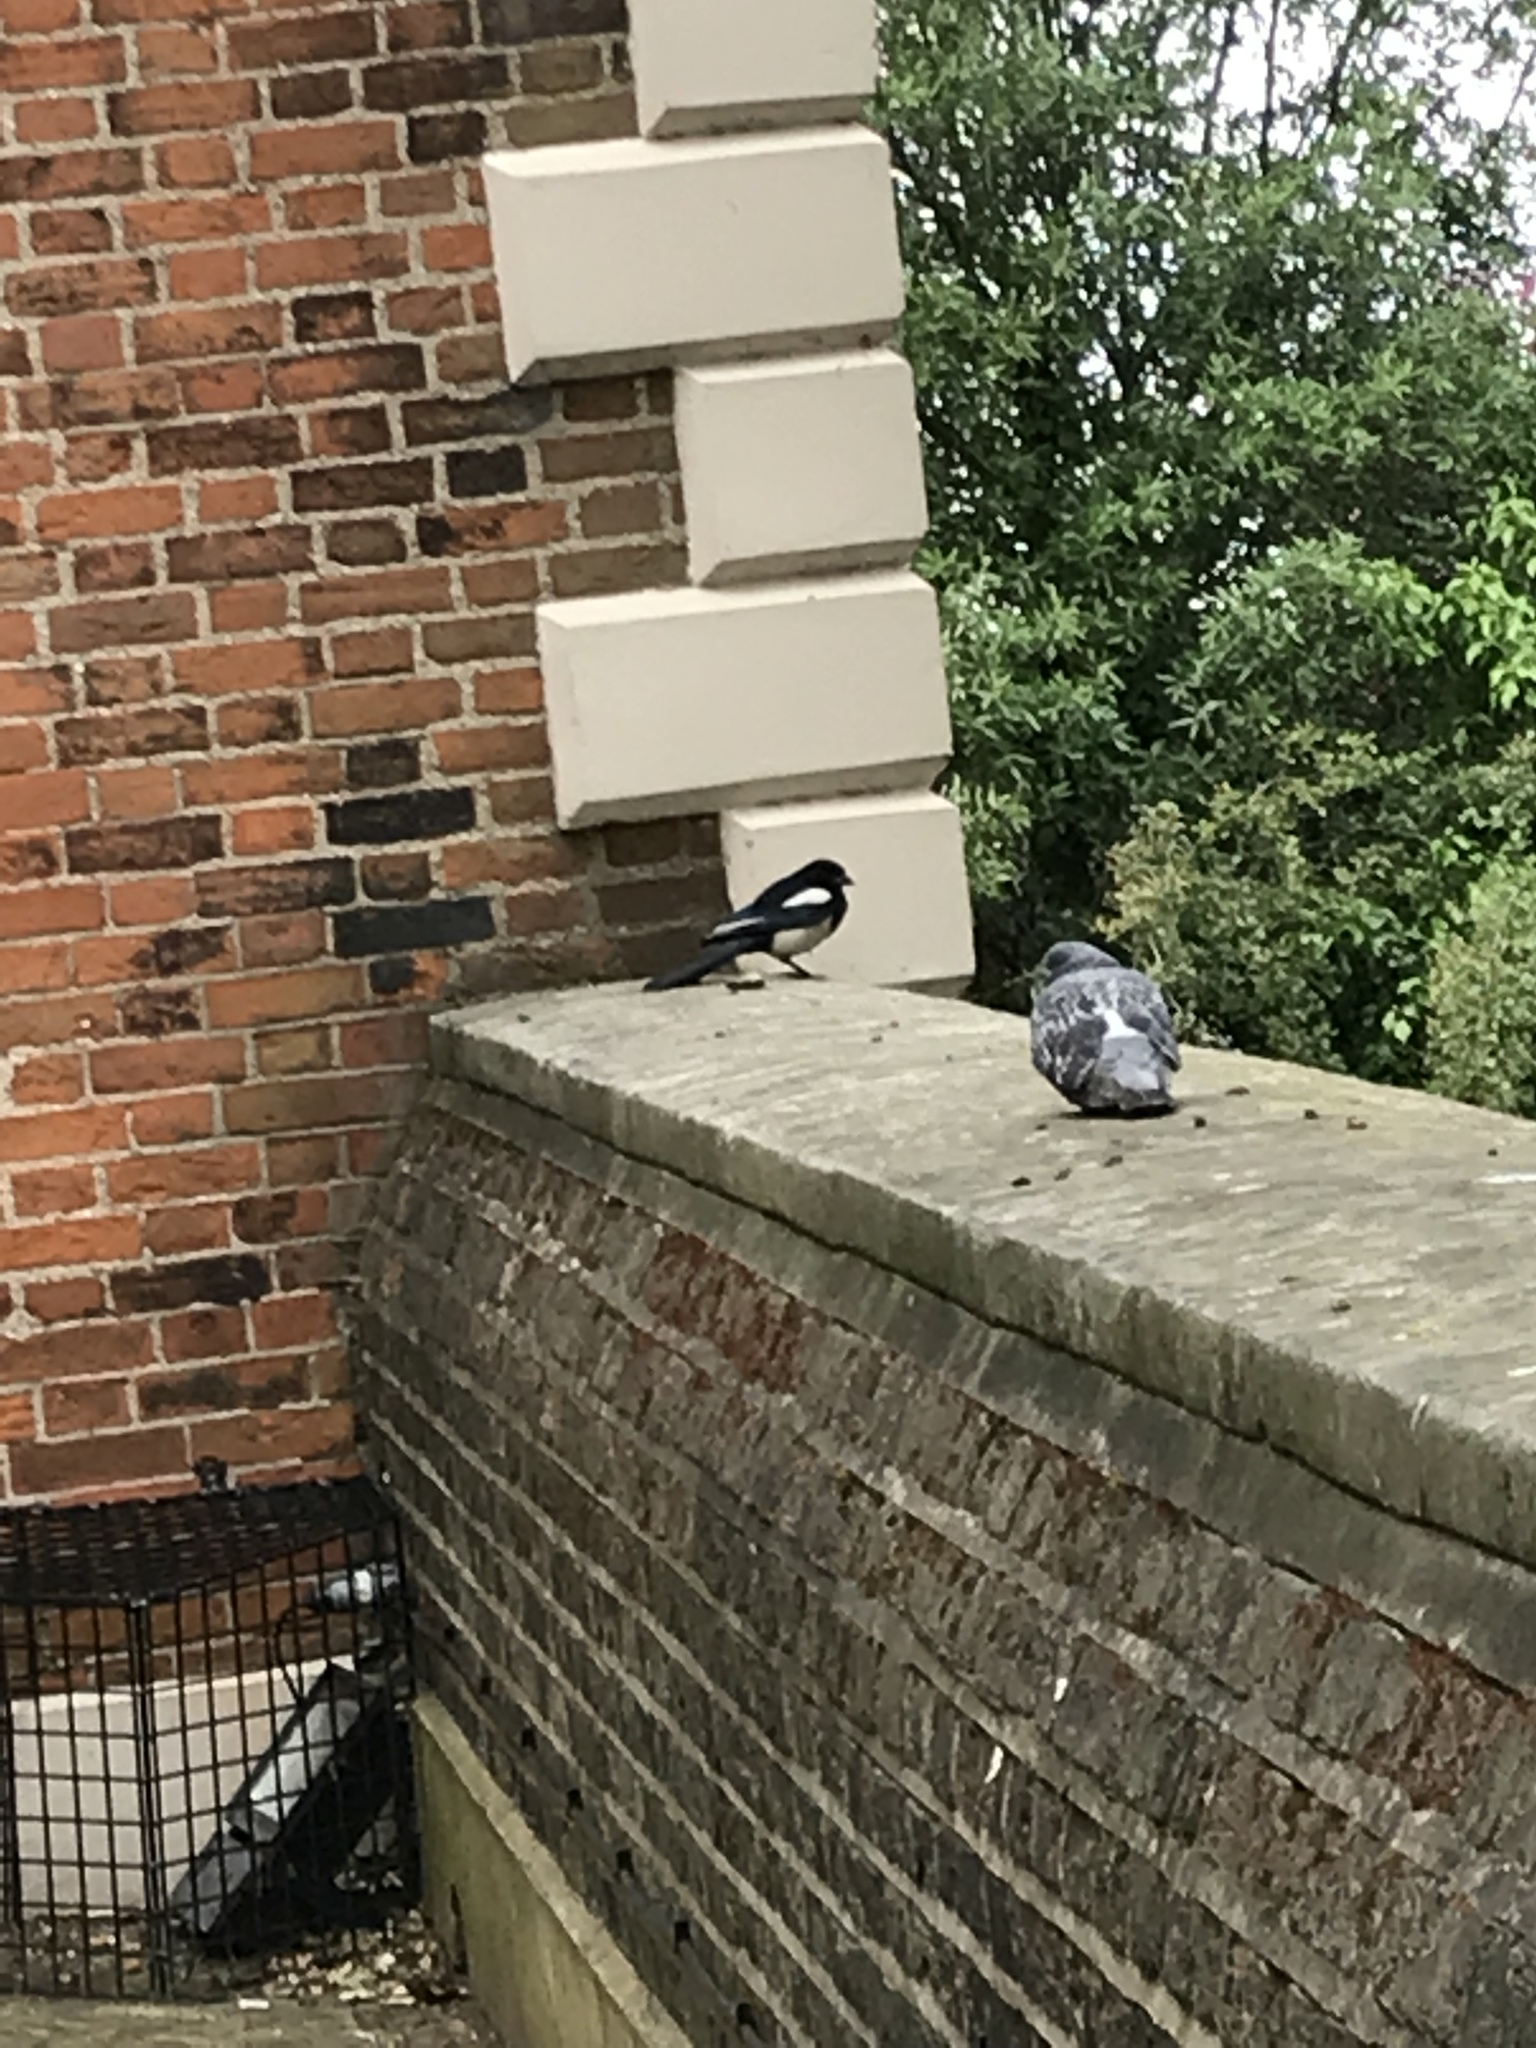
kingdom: Animalia
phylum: Chordata
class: Aves
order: Passeriformes
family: Corvidae
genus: Pica
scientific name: Pica pica
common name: Eurasian magpie
